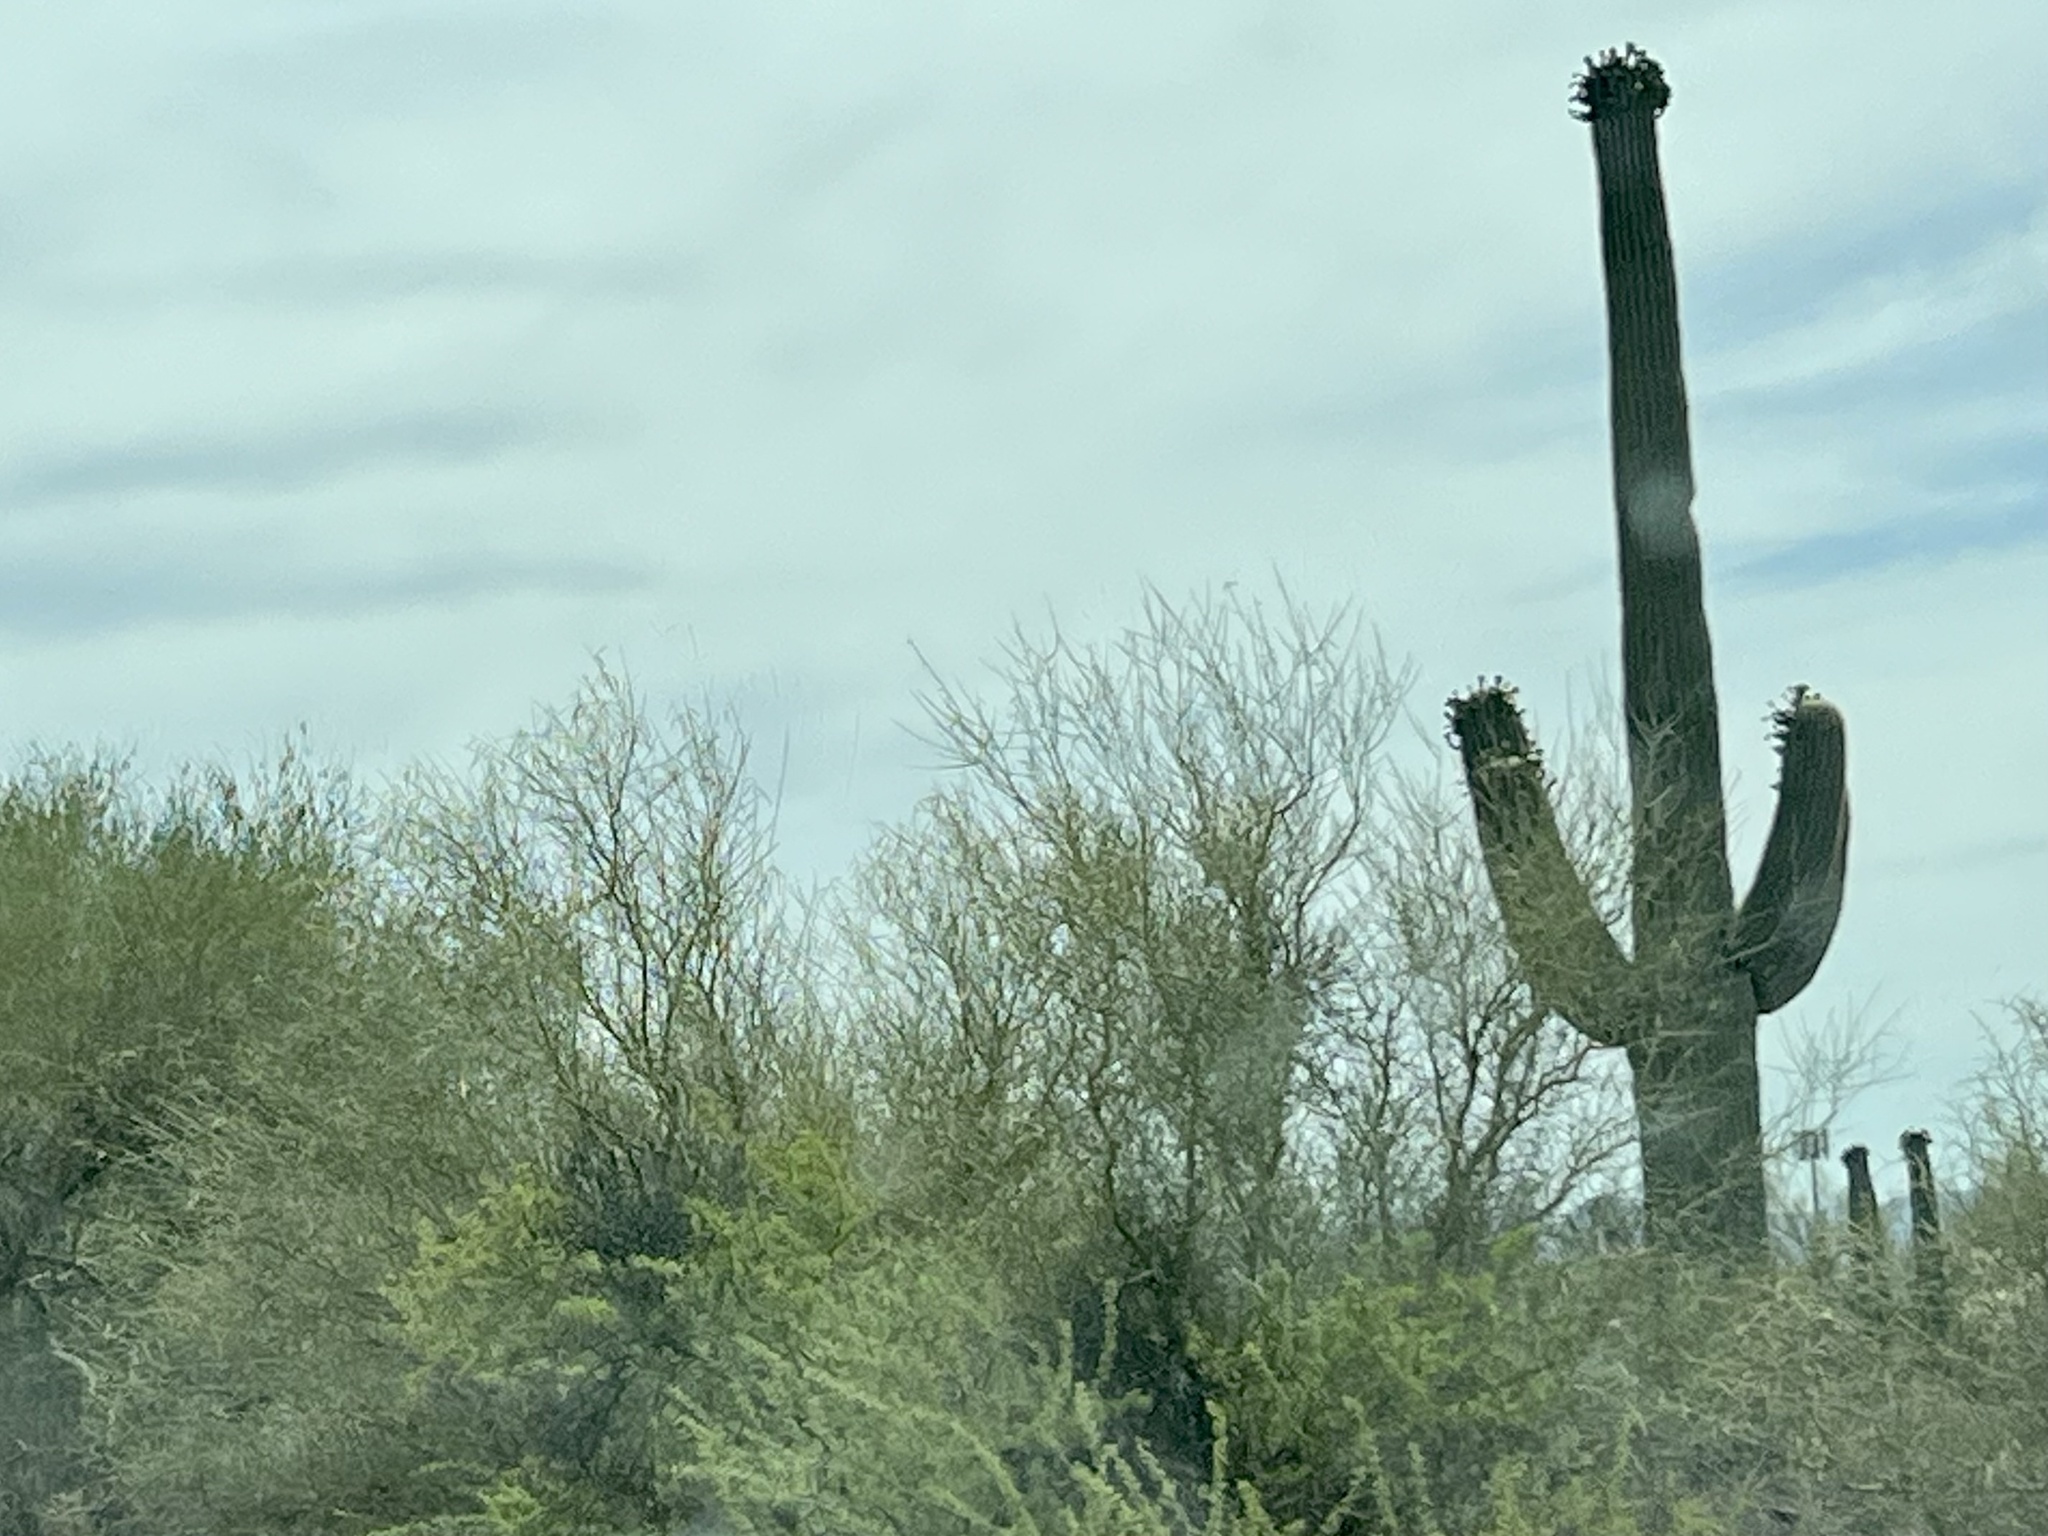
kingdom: Plantae
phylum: Tracheophyta
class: Magnoliopsida
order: Caryophyllales
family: Cactaceae
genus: Carnegiea
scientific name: Carnegiea gigantea
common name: Saguaro
